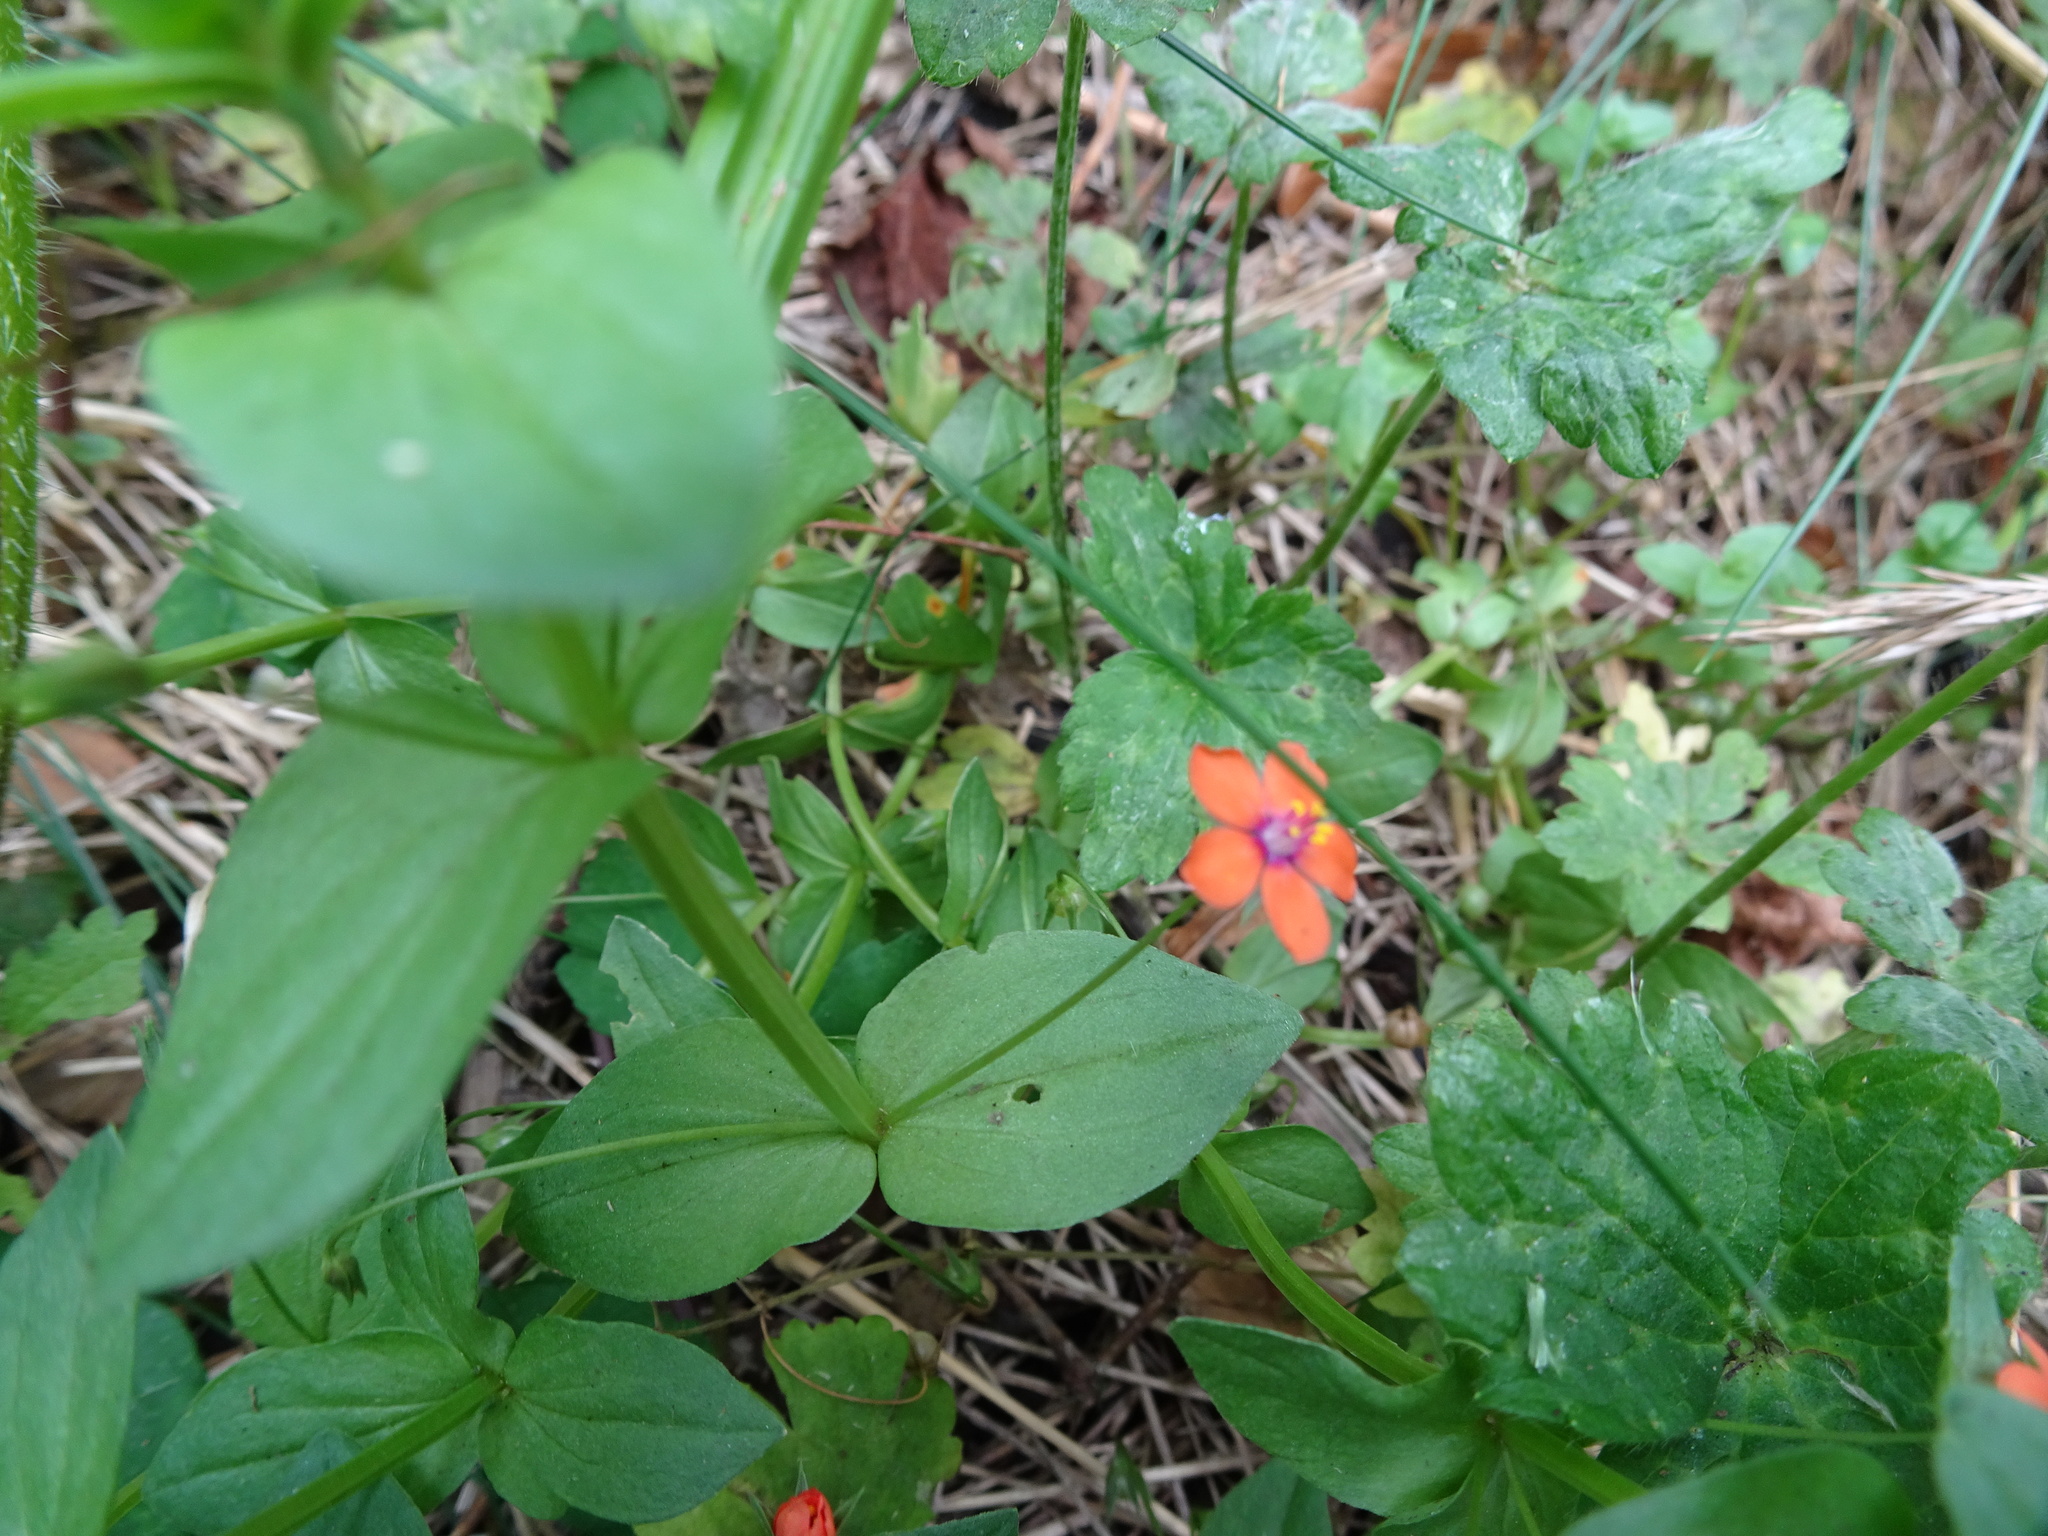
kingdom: Plantae
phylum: Tracheophyta
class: Magnoliopsida
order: Ericales
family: Primulaceae
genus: Lysimachia
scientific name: Lysimachia arvensis
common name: Scarlet pimpernel
